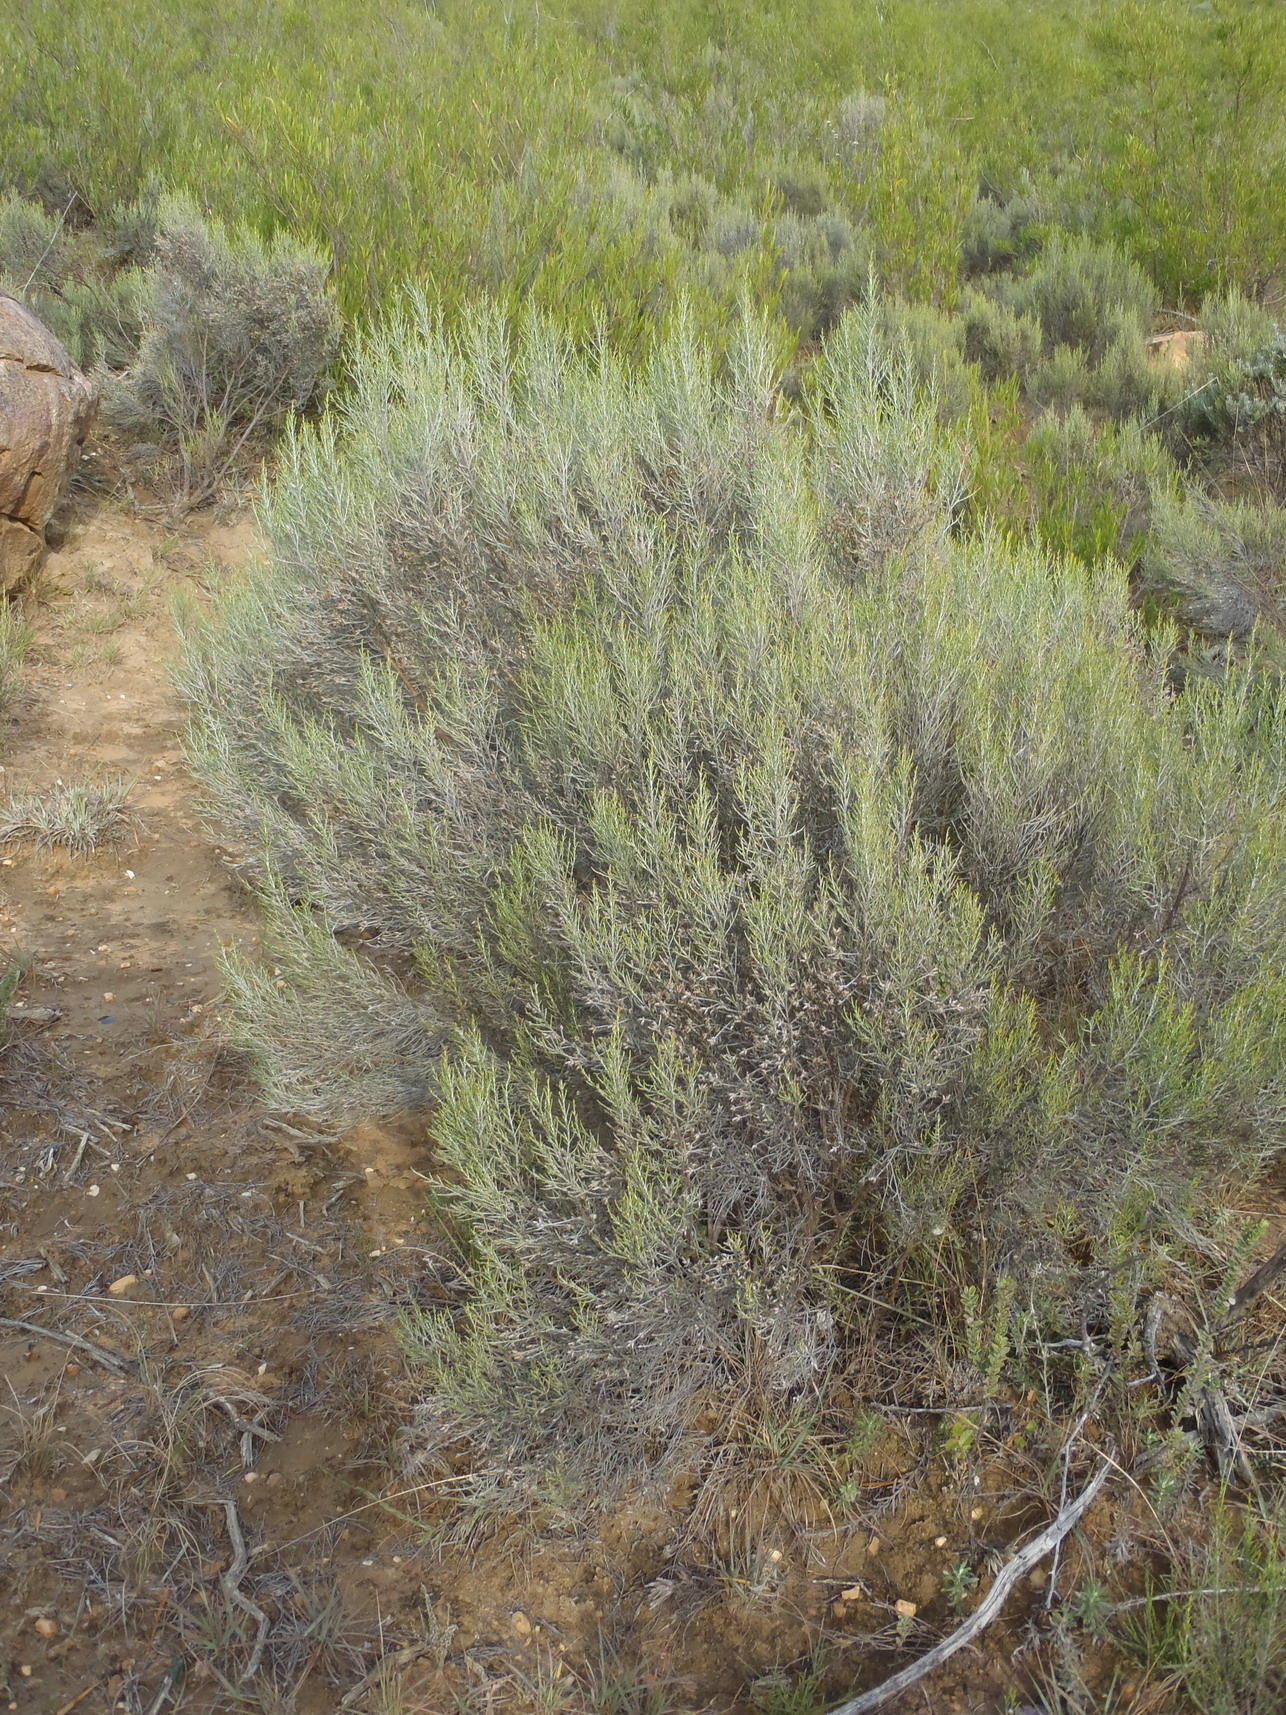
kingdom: Plantae
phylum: Tracheophyta
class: Magnoliopsida
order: Asterales
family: Asteraceae
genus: Dicerothamnus
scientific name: Dicerothamnus rhinocerotis
